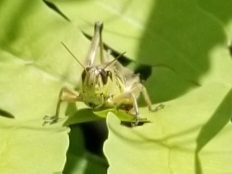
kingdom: Animalia
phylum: Arthropoda
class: Insecta
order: Orthoptera
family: Acrididae
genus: Melanoplus
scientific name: Melanoplus borealis
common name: Northern grasshopper
